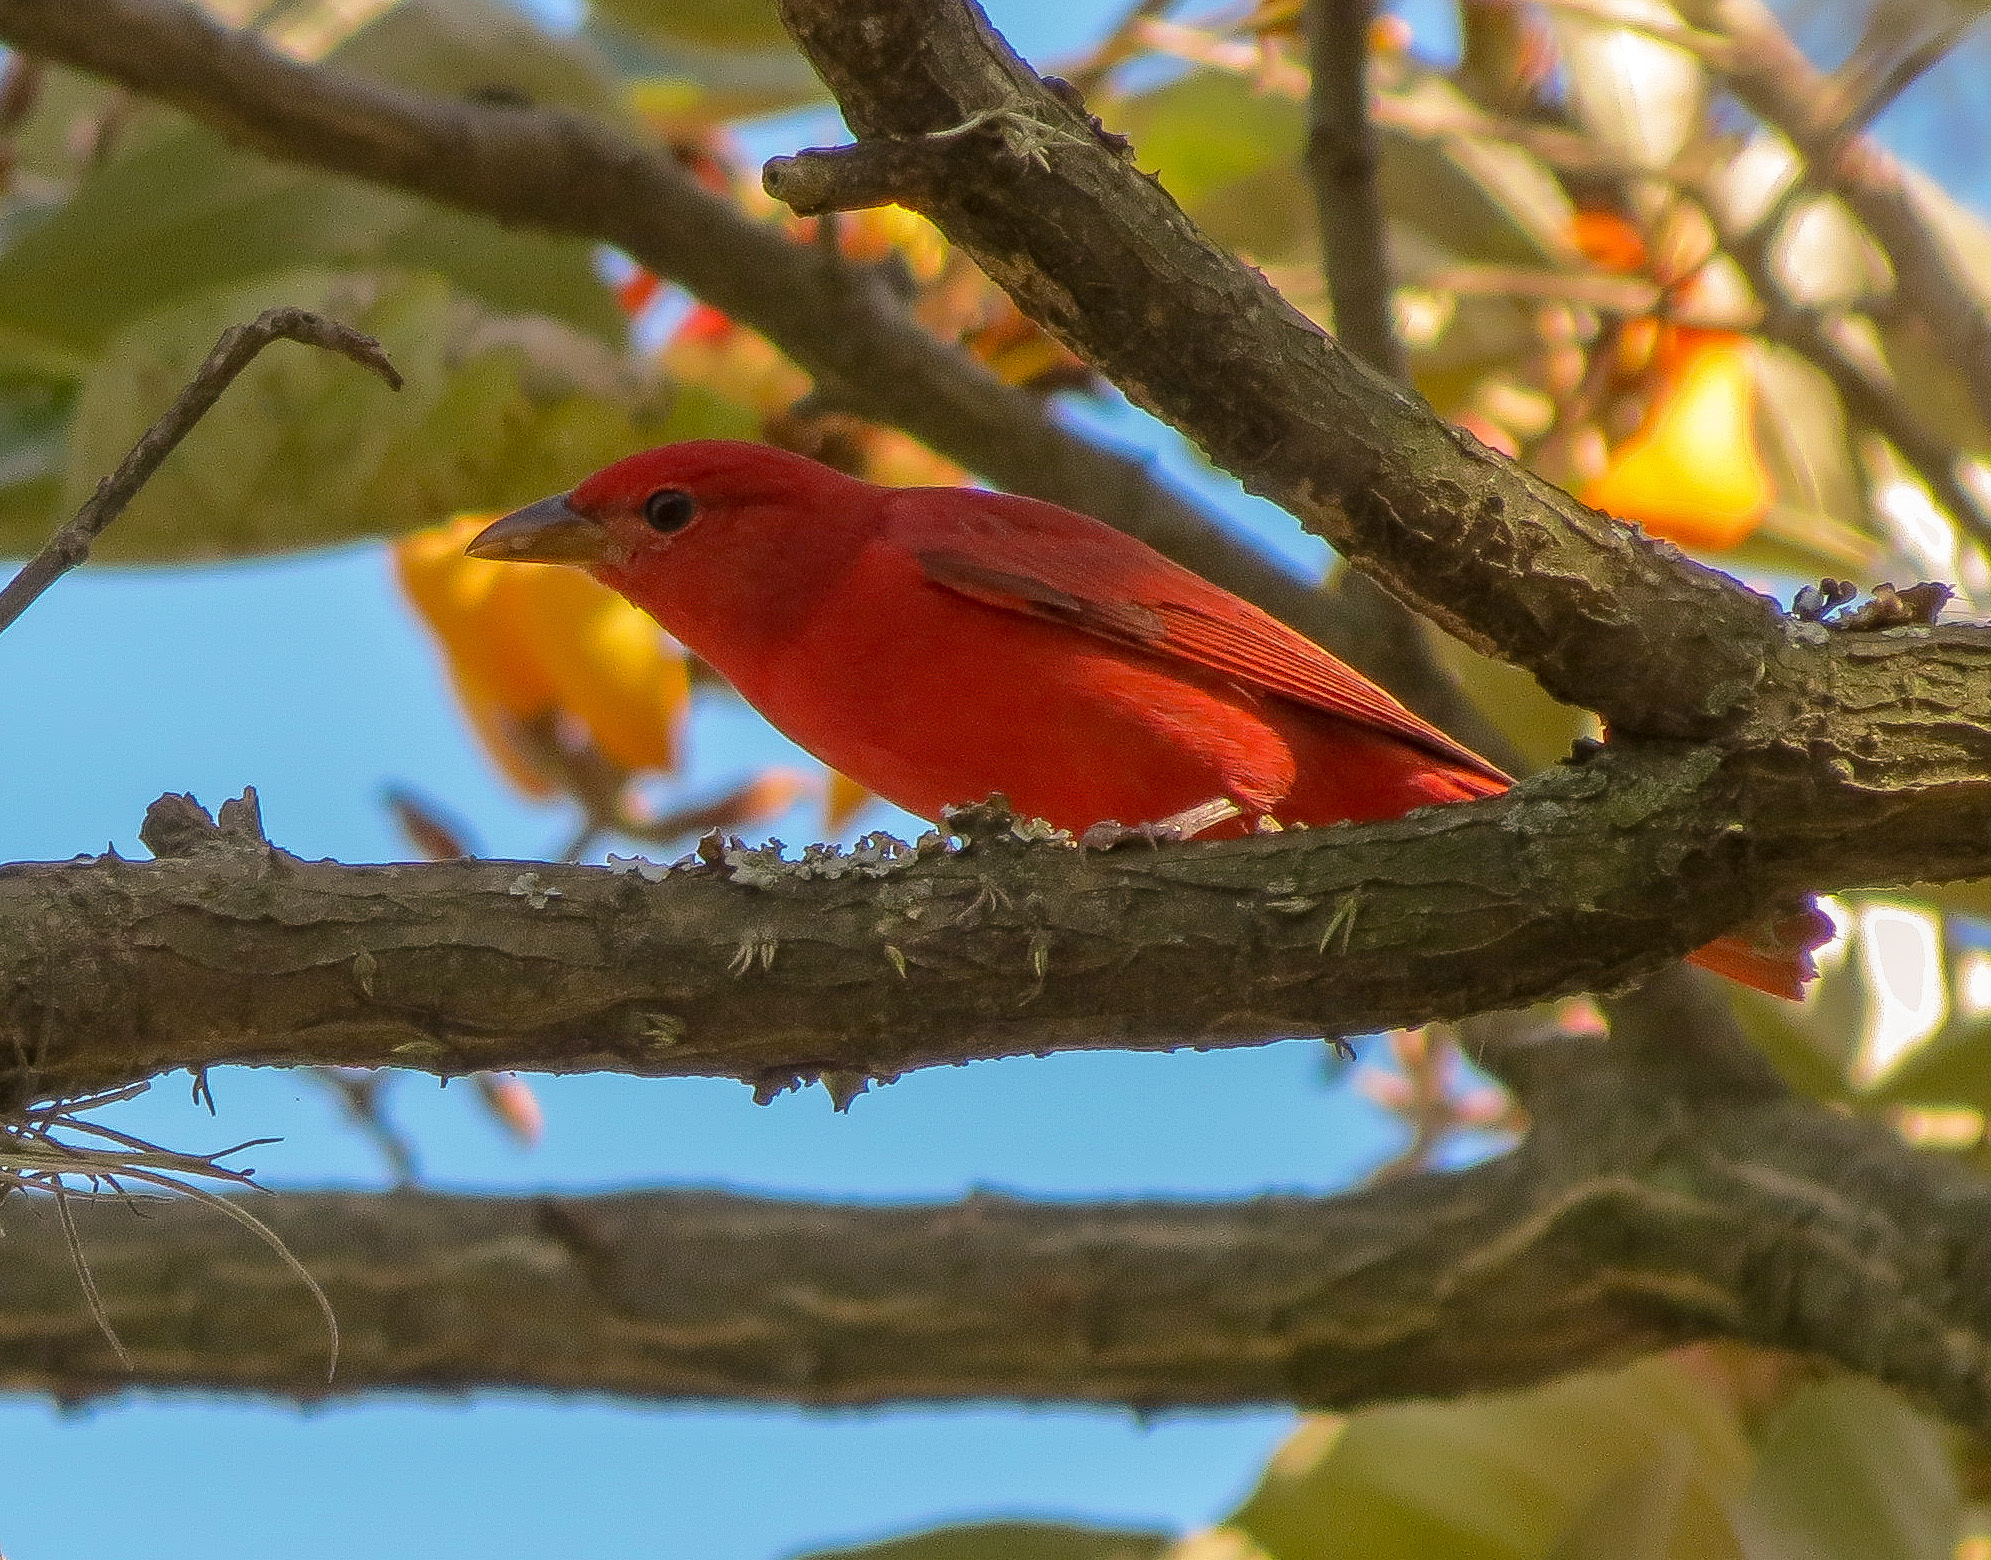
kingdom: Animalia
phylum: Chordata
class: Aves
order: Passeriformes
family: Cardinalidae
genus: Piranga
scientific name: Piranga rubra
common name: Summer tanager
